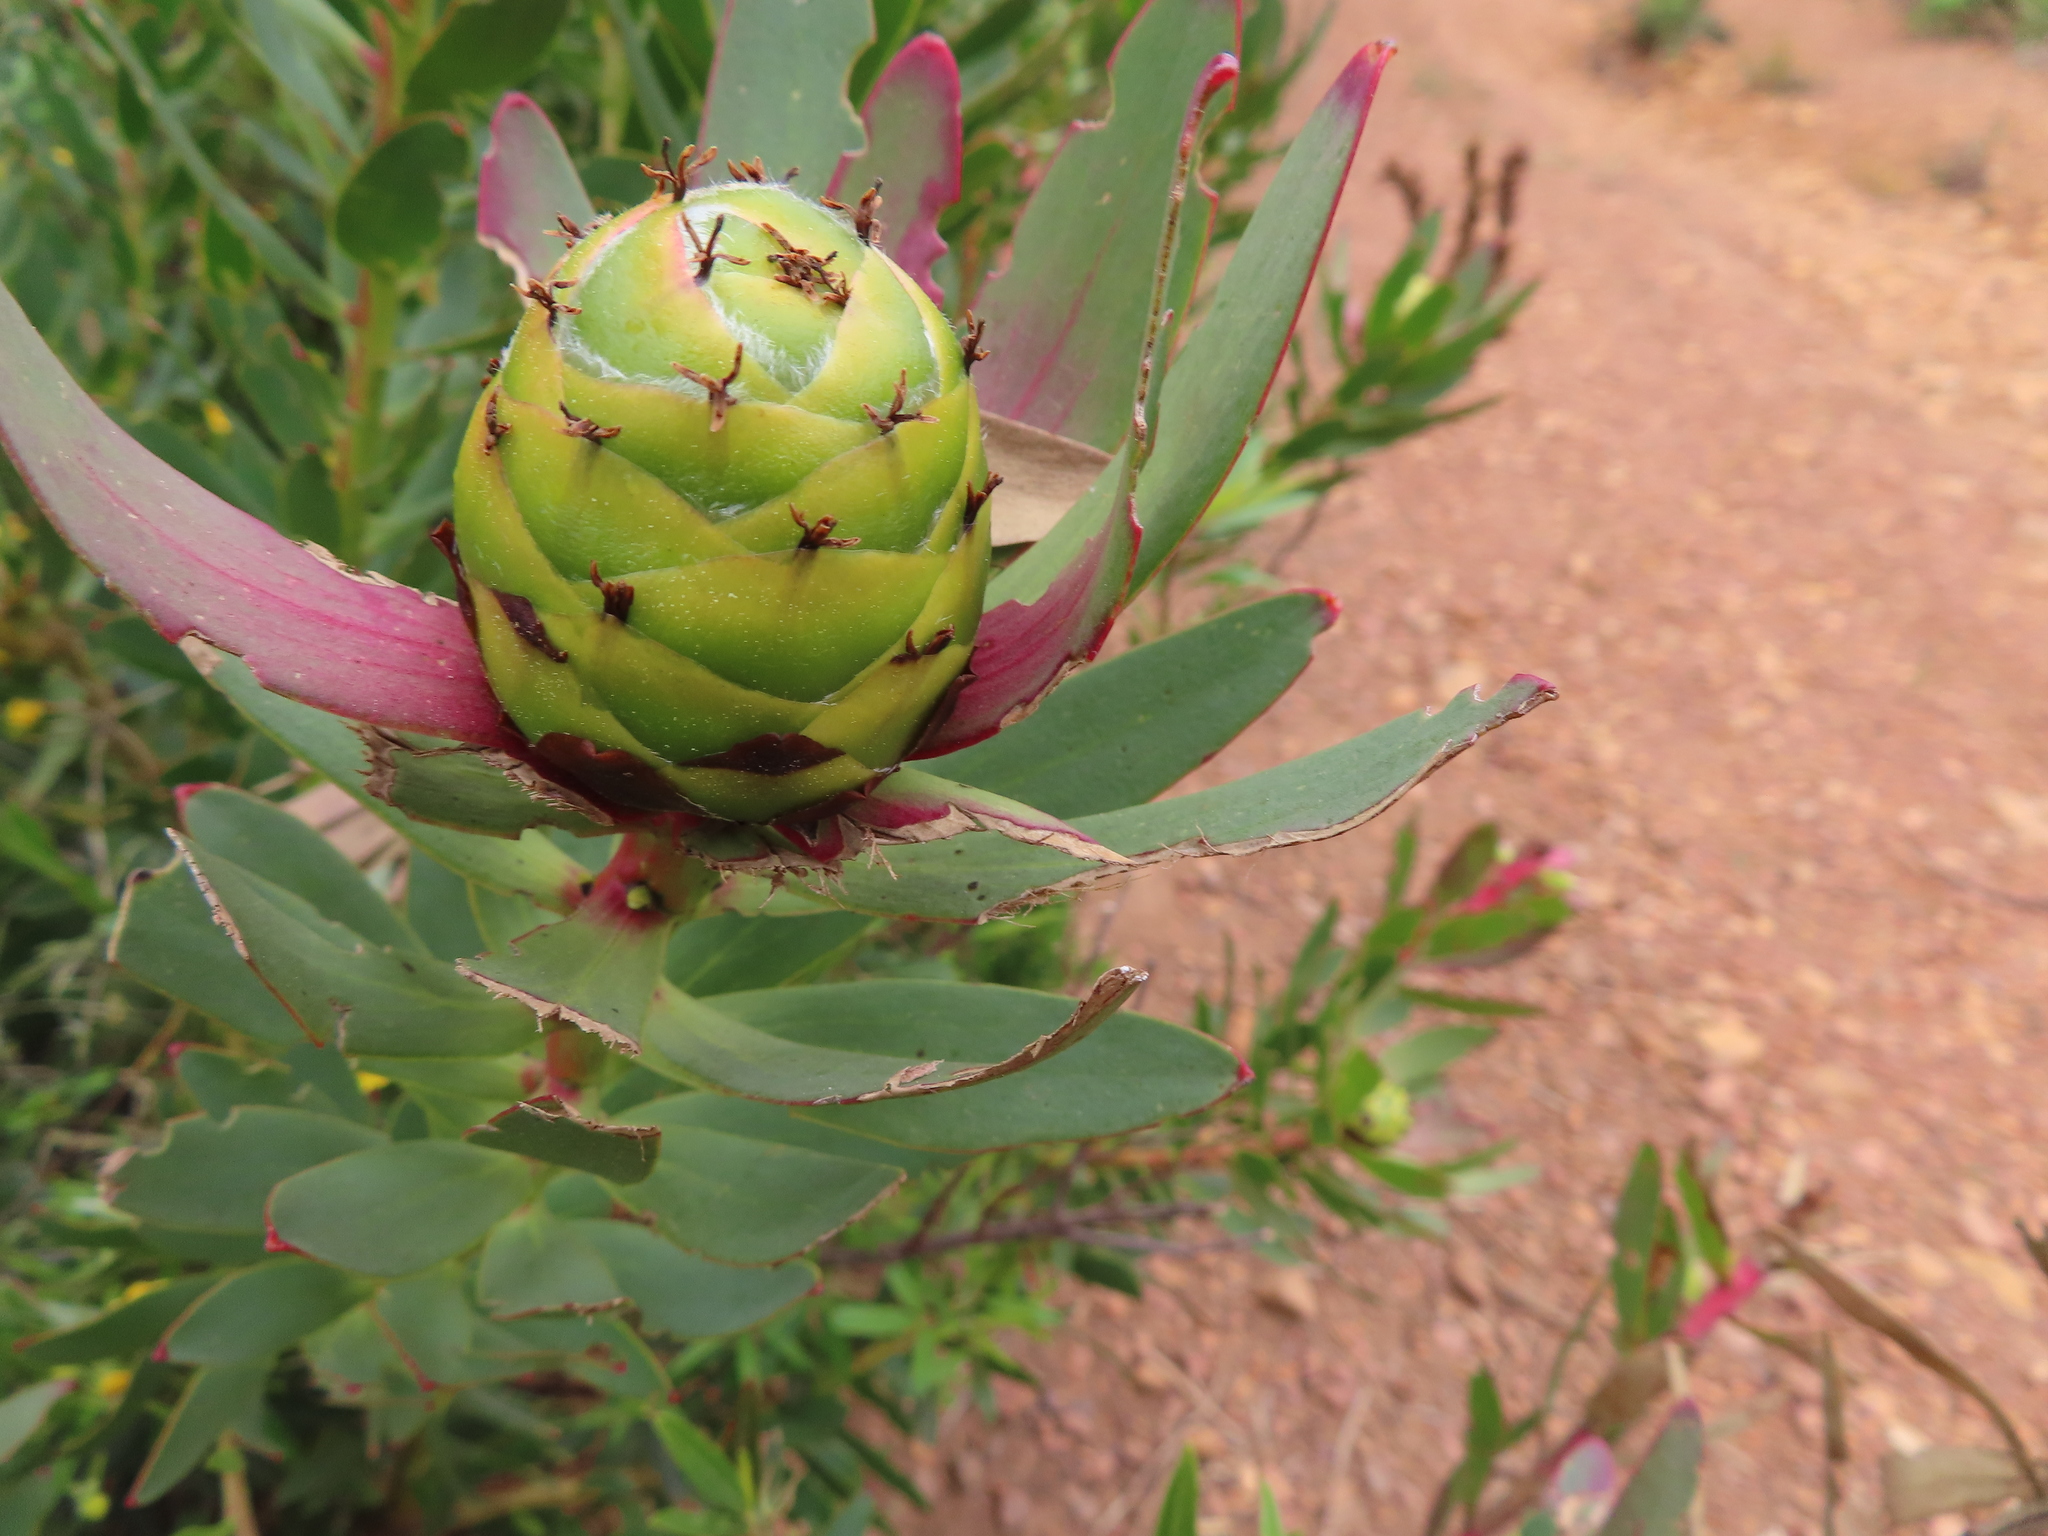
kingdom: Plantae
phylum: Tracheophyta
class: Magnoliopsida
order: Proteales
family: Proteaceae
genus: Leucadendron
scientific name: Leucadendron sessile
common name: Western sunbush
